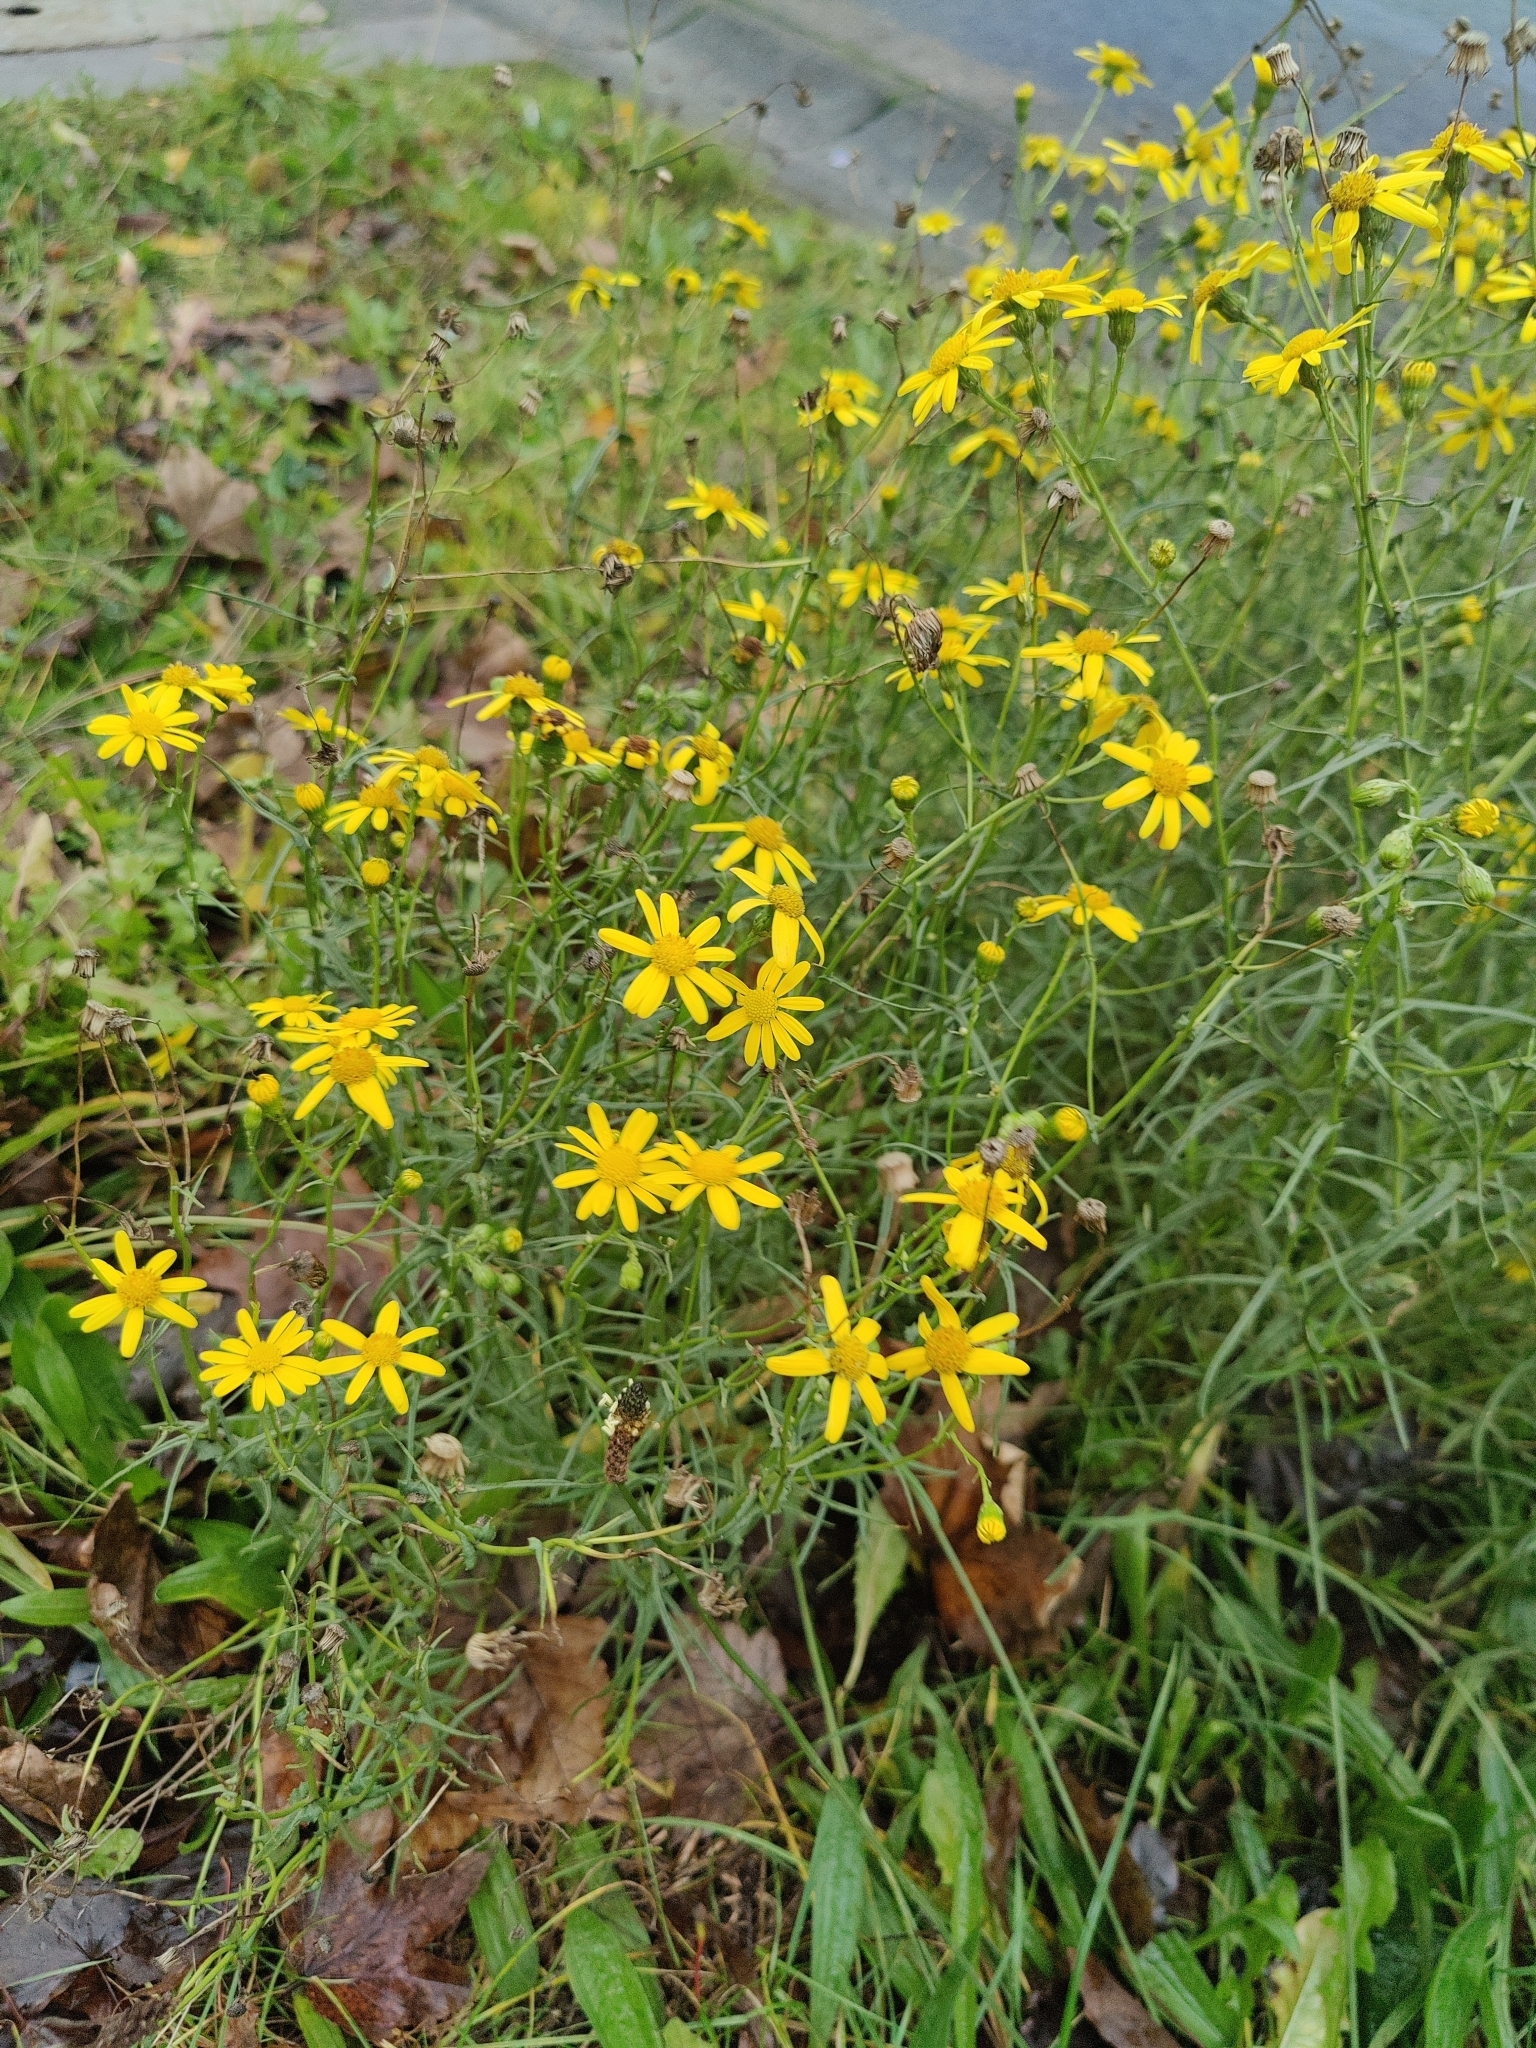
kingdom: Plantae
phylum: Tracheophyta
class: Magnoliopsida
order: Asterales
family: Asteraceae
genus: Senecio
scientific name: Senecio inaequidens
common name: Narrow-leaved ragwort
